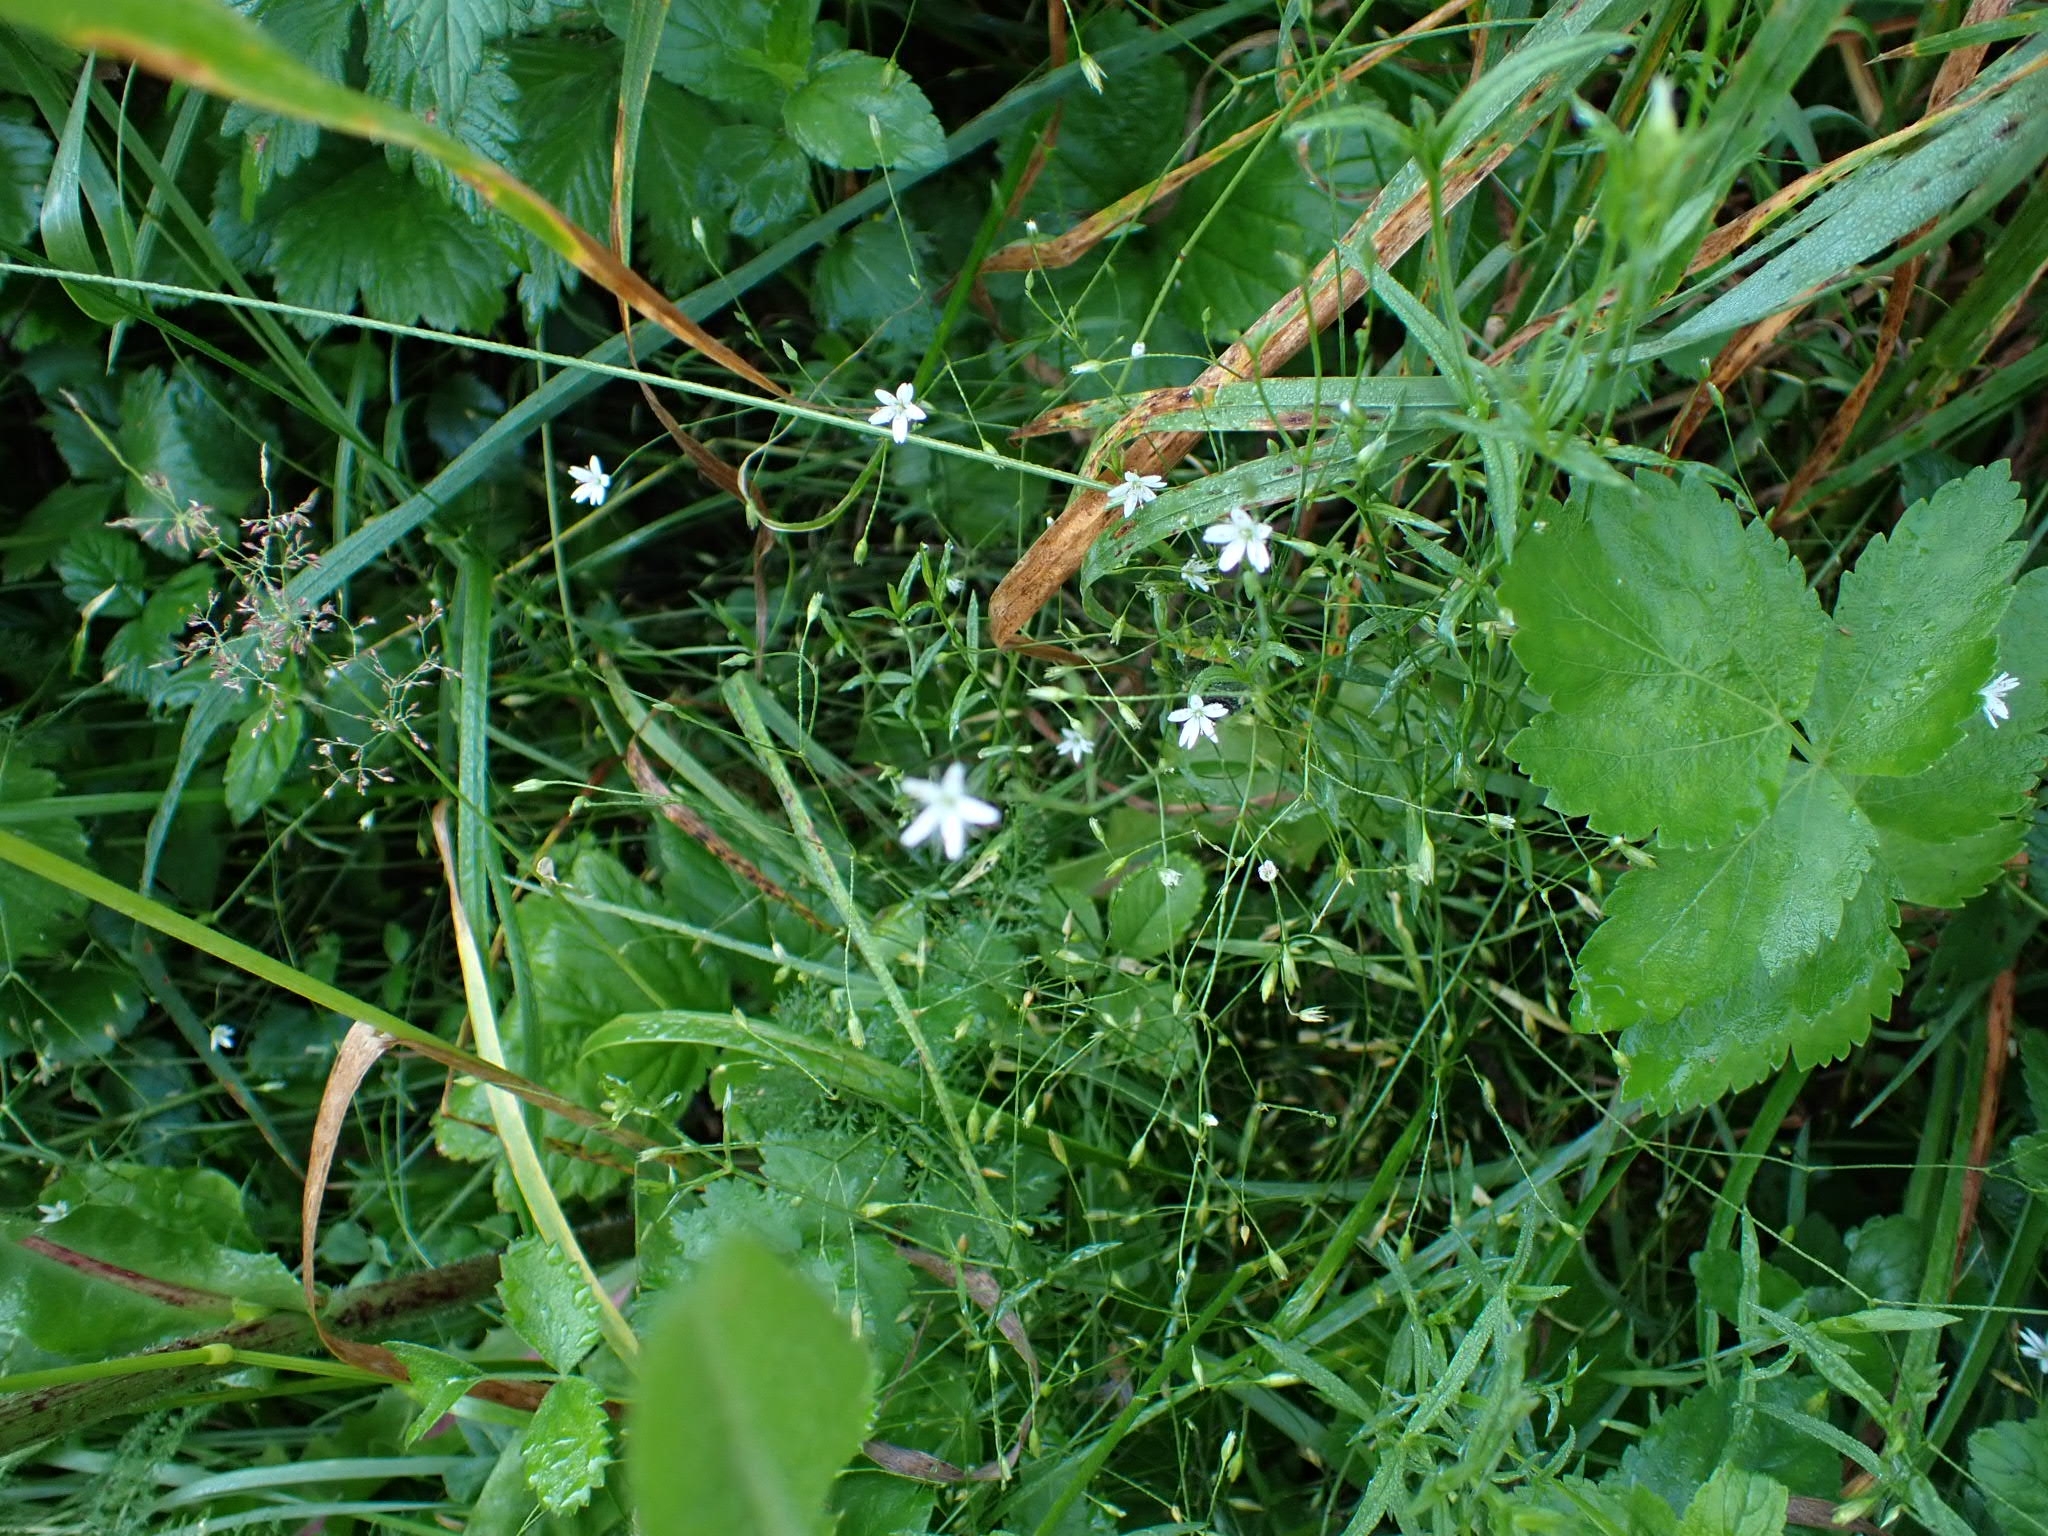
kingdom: Plantae
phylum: Tracheophyta
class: Magnoliopsida
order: Caryophyllales
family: Caryophyllaceae
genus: Stellaria
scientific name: Stellaria graminea
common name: Grass-like starwort
